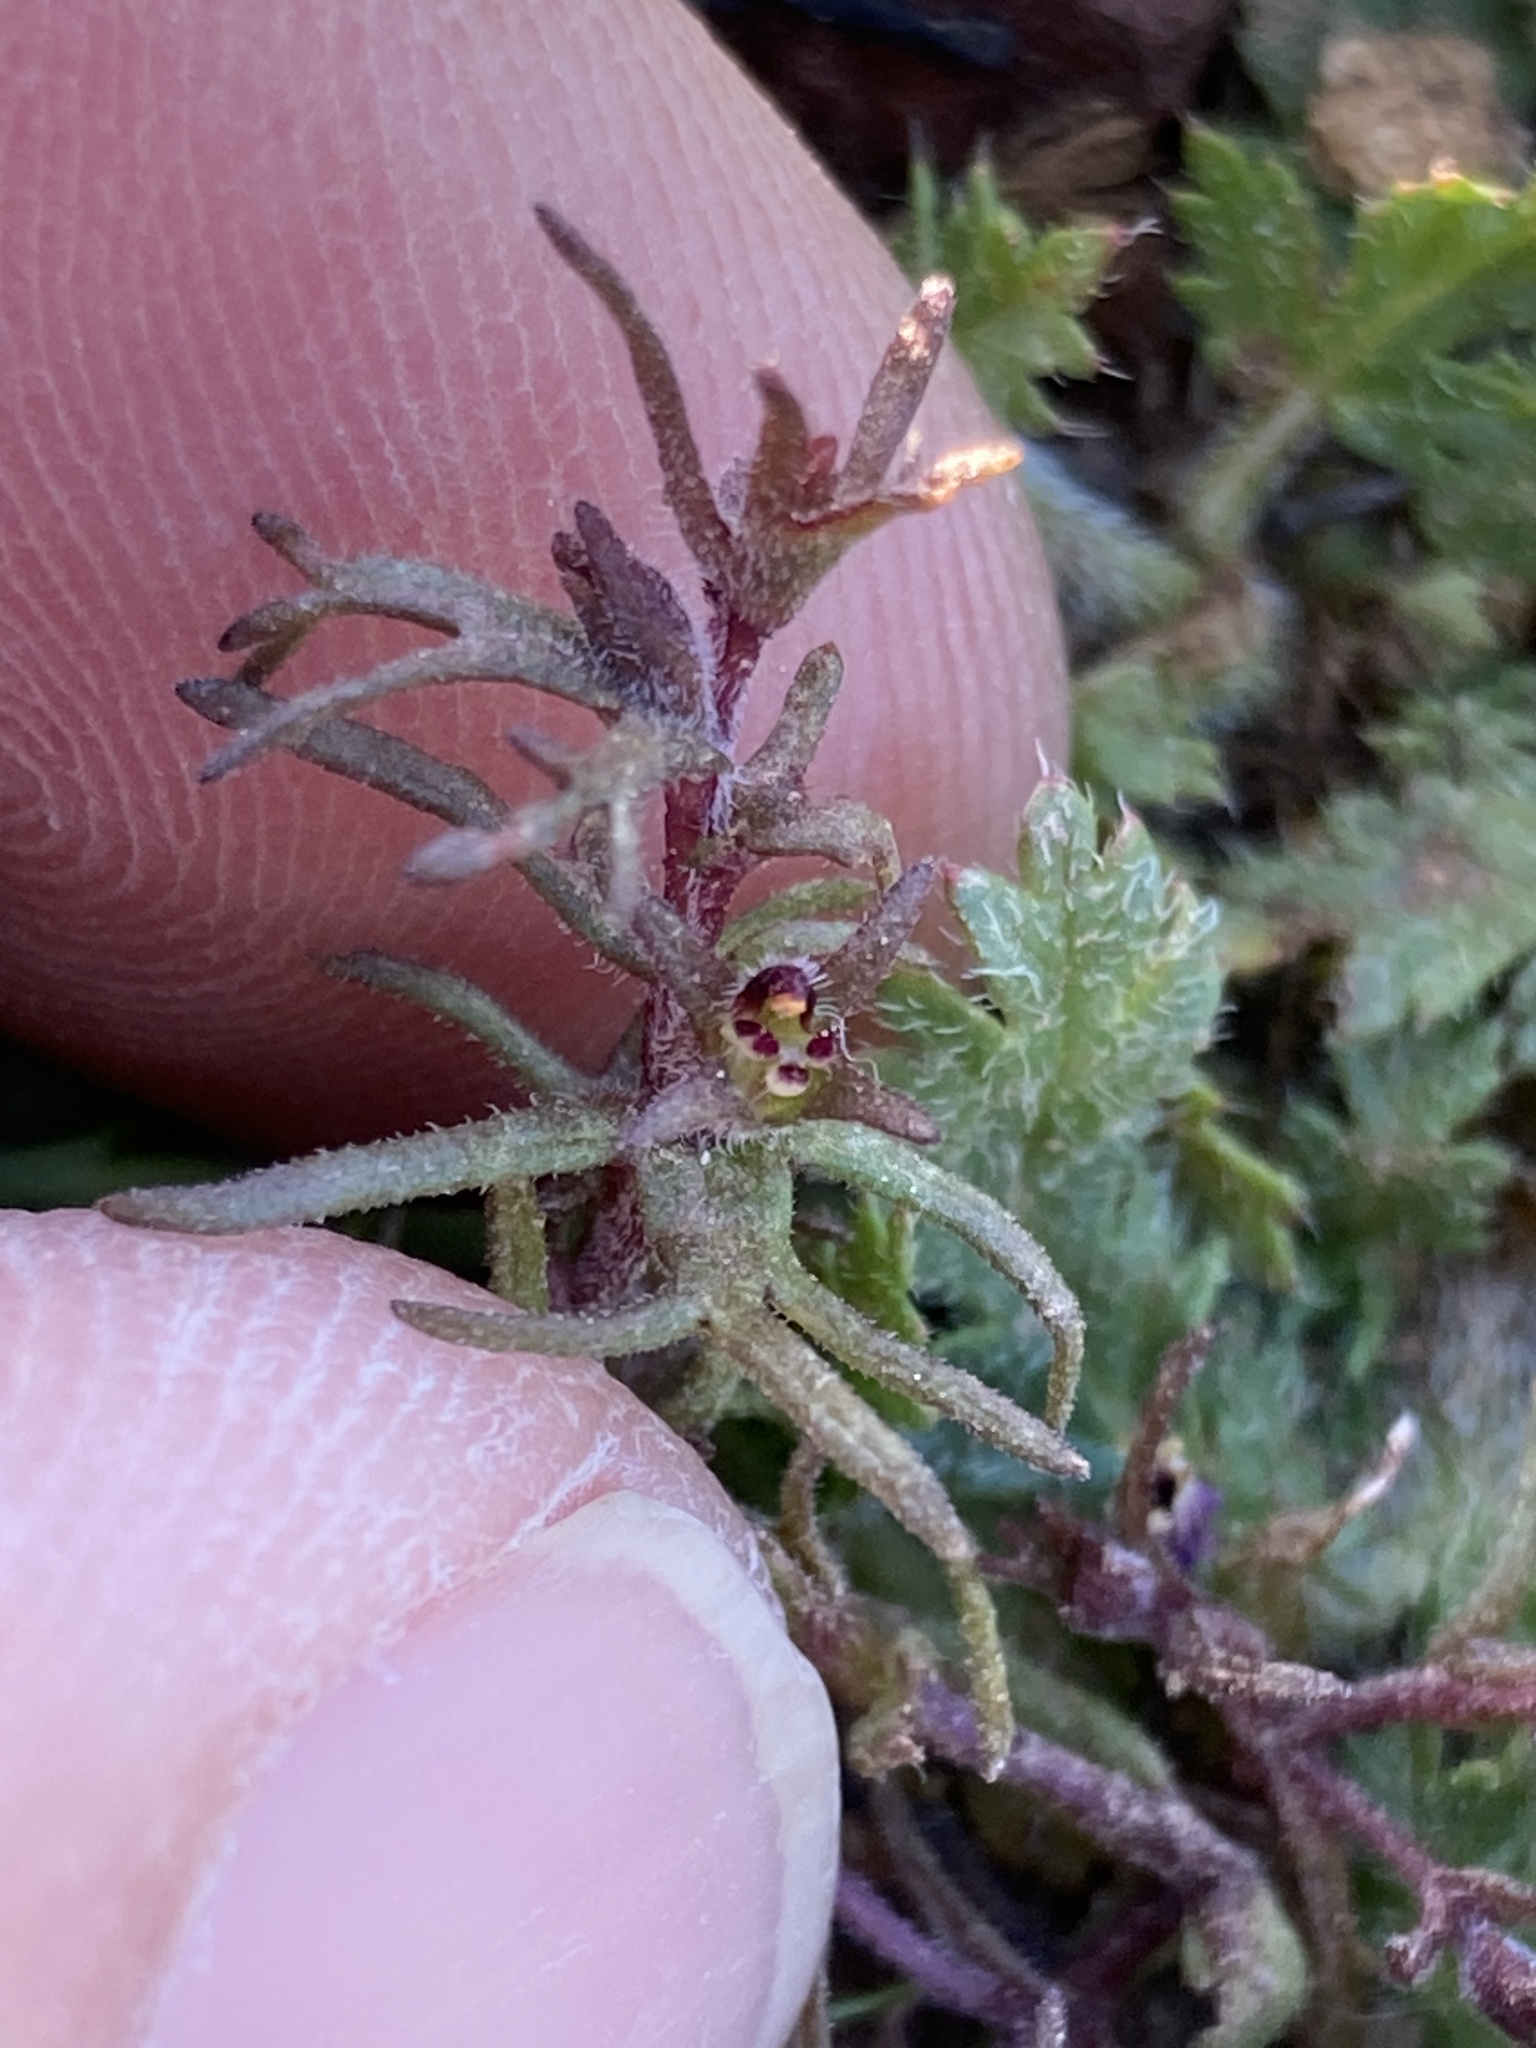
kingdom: Plantae
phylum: Tracheophyta
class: Magnoliopsida
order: Lamiales
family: Orobanchaceae
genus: Triphysaria
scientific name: Triphysaria pusilla
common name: Dwarf false owl-clover
